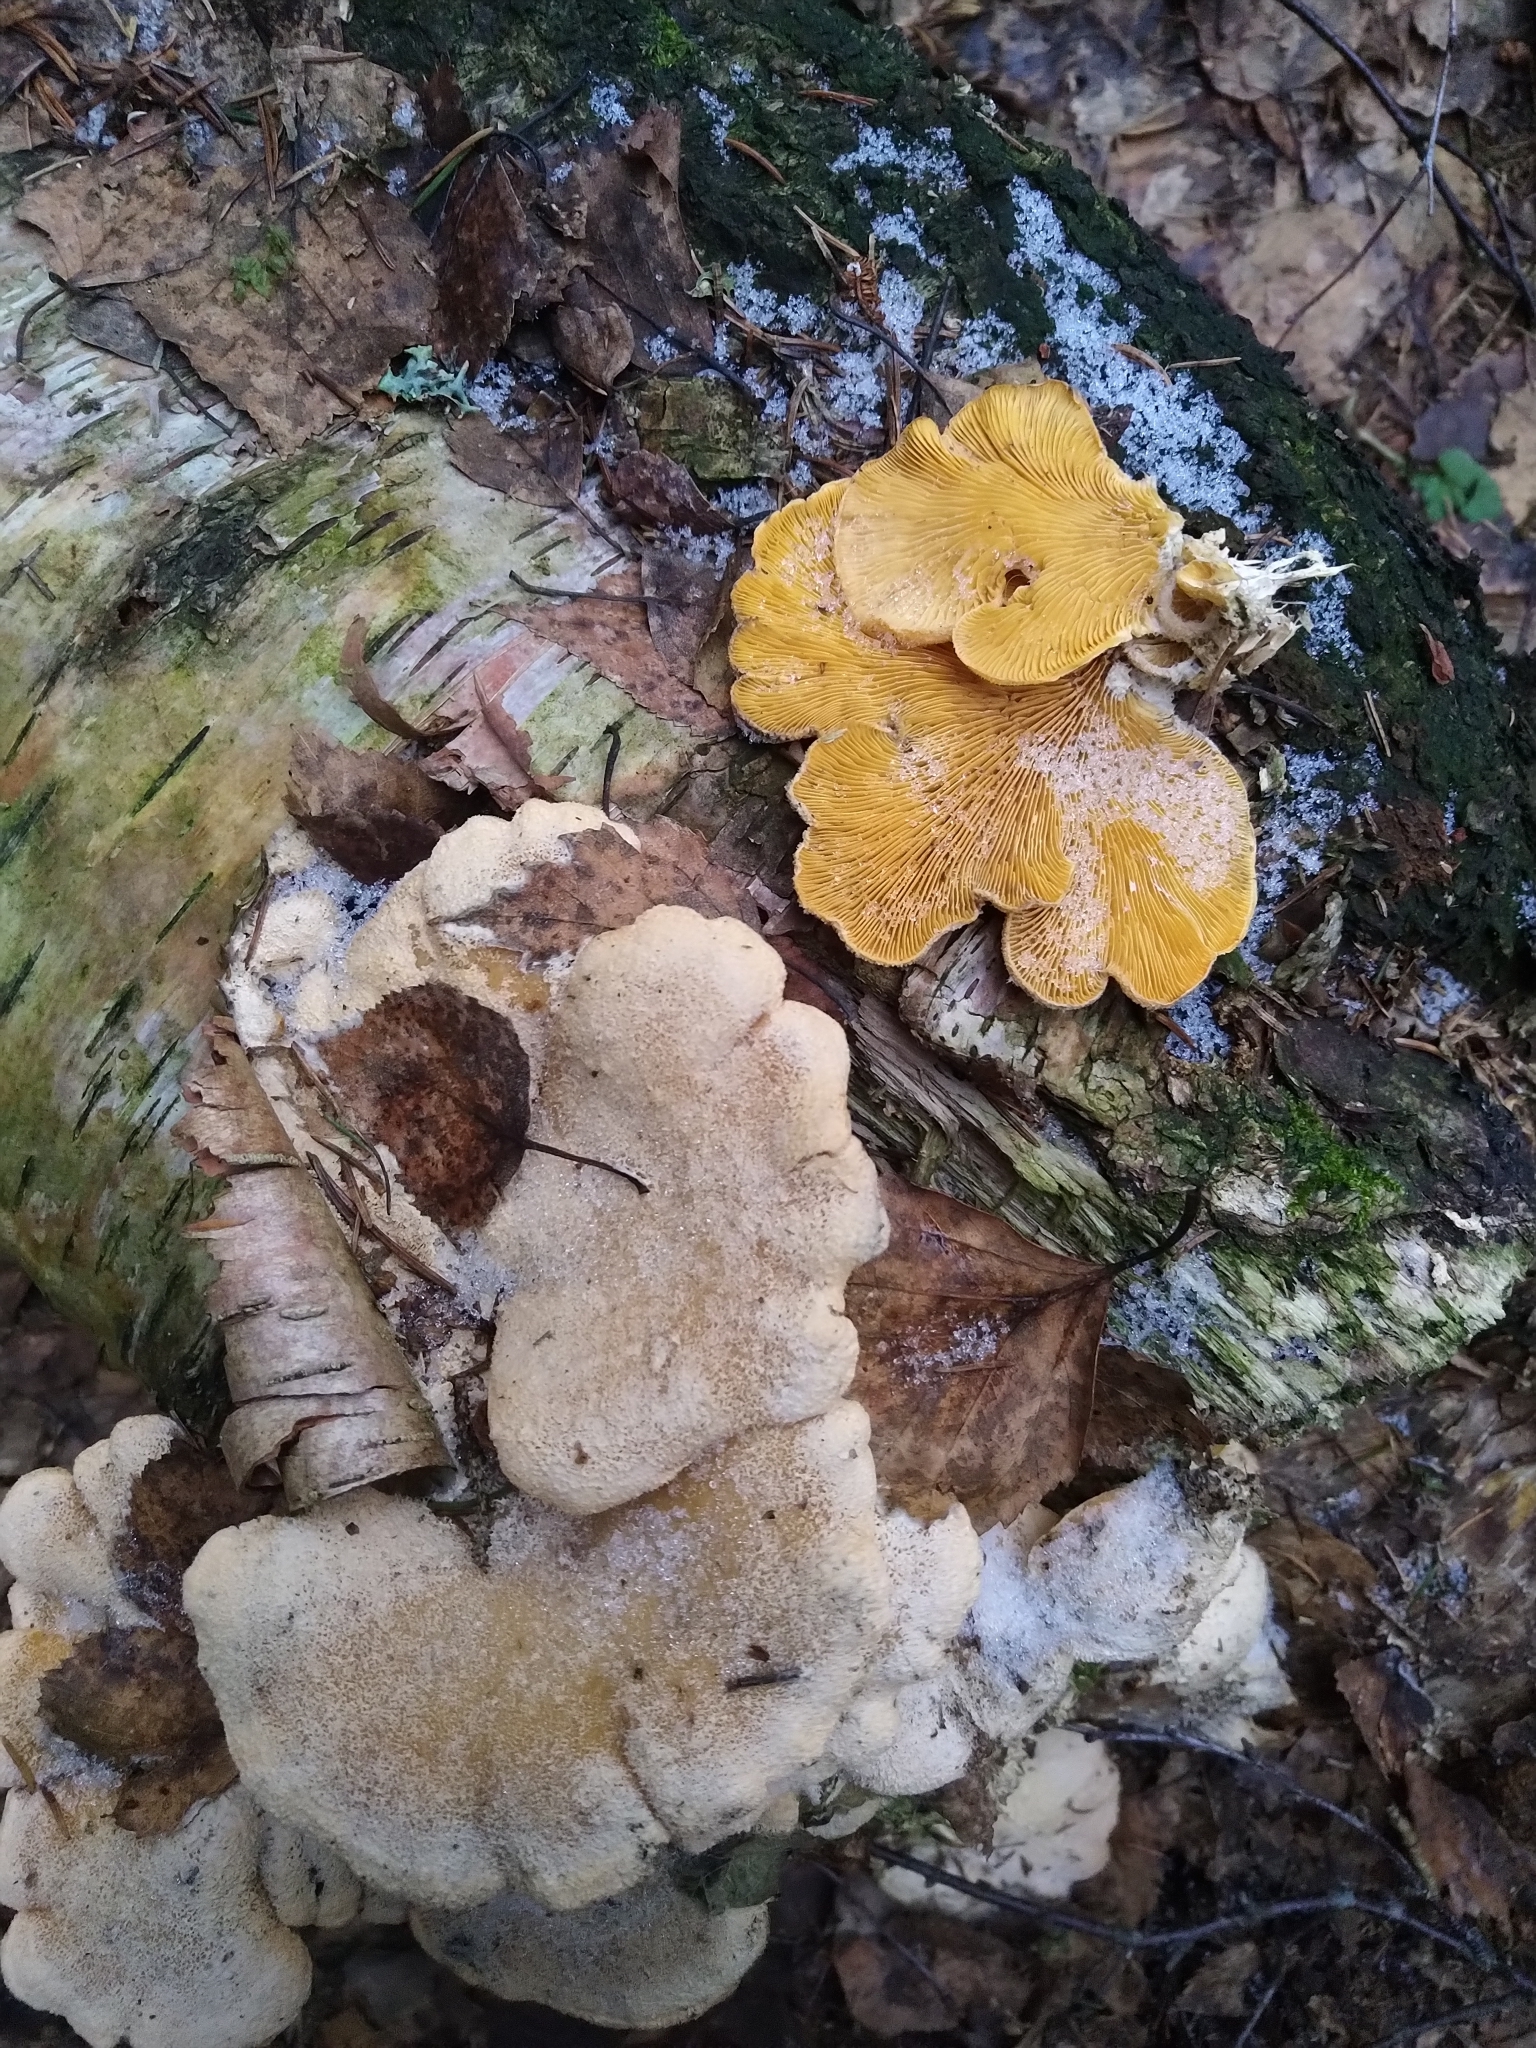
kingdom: Fungi
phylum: Basidiomycota
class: Agaricomycetes
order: Agaricales
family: Phyllotopsidaceae
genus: Phyllotopsis
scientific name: Phyllotopsis nidulans
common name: Orange mock oyster
